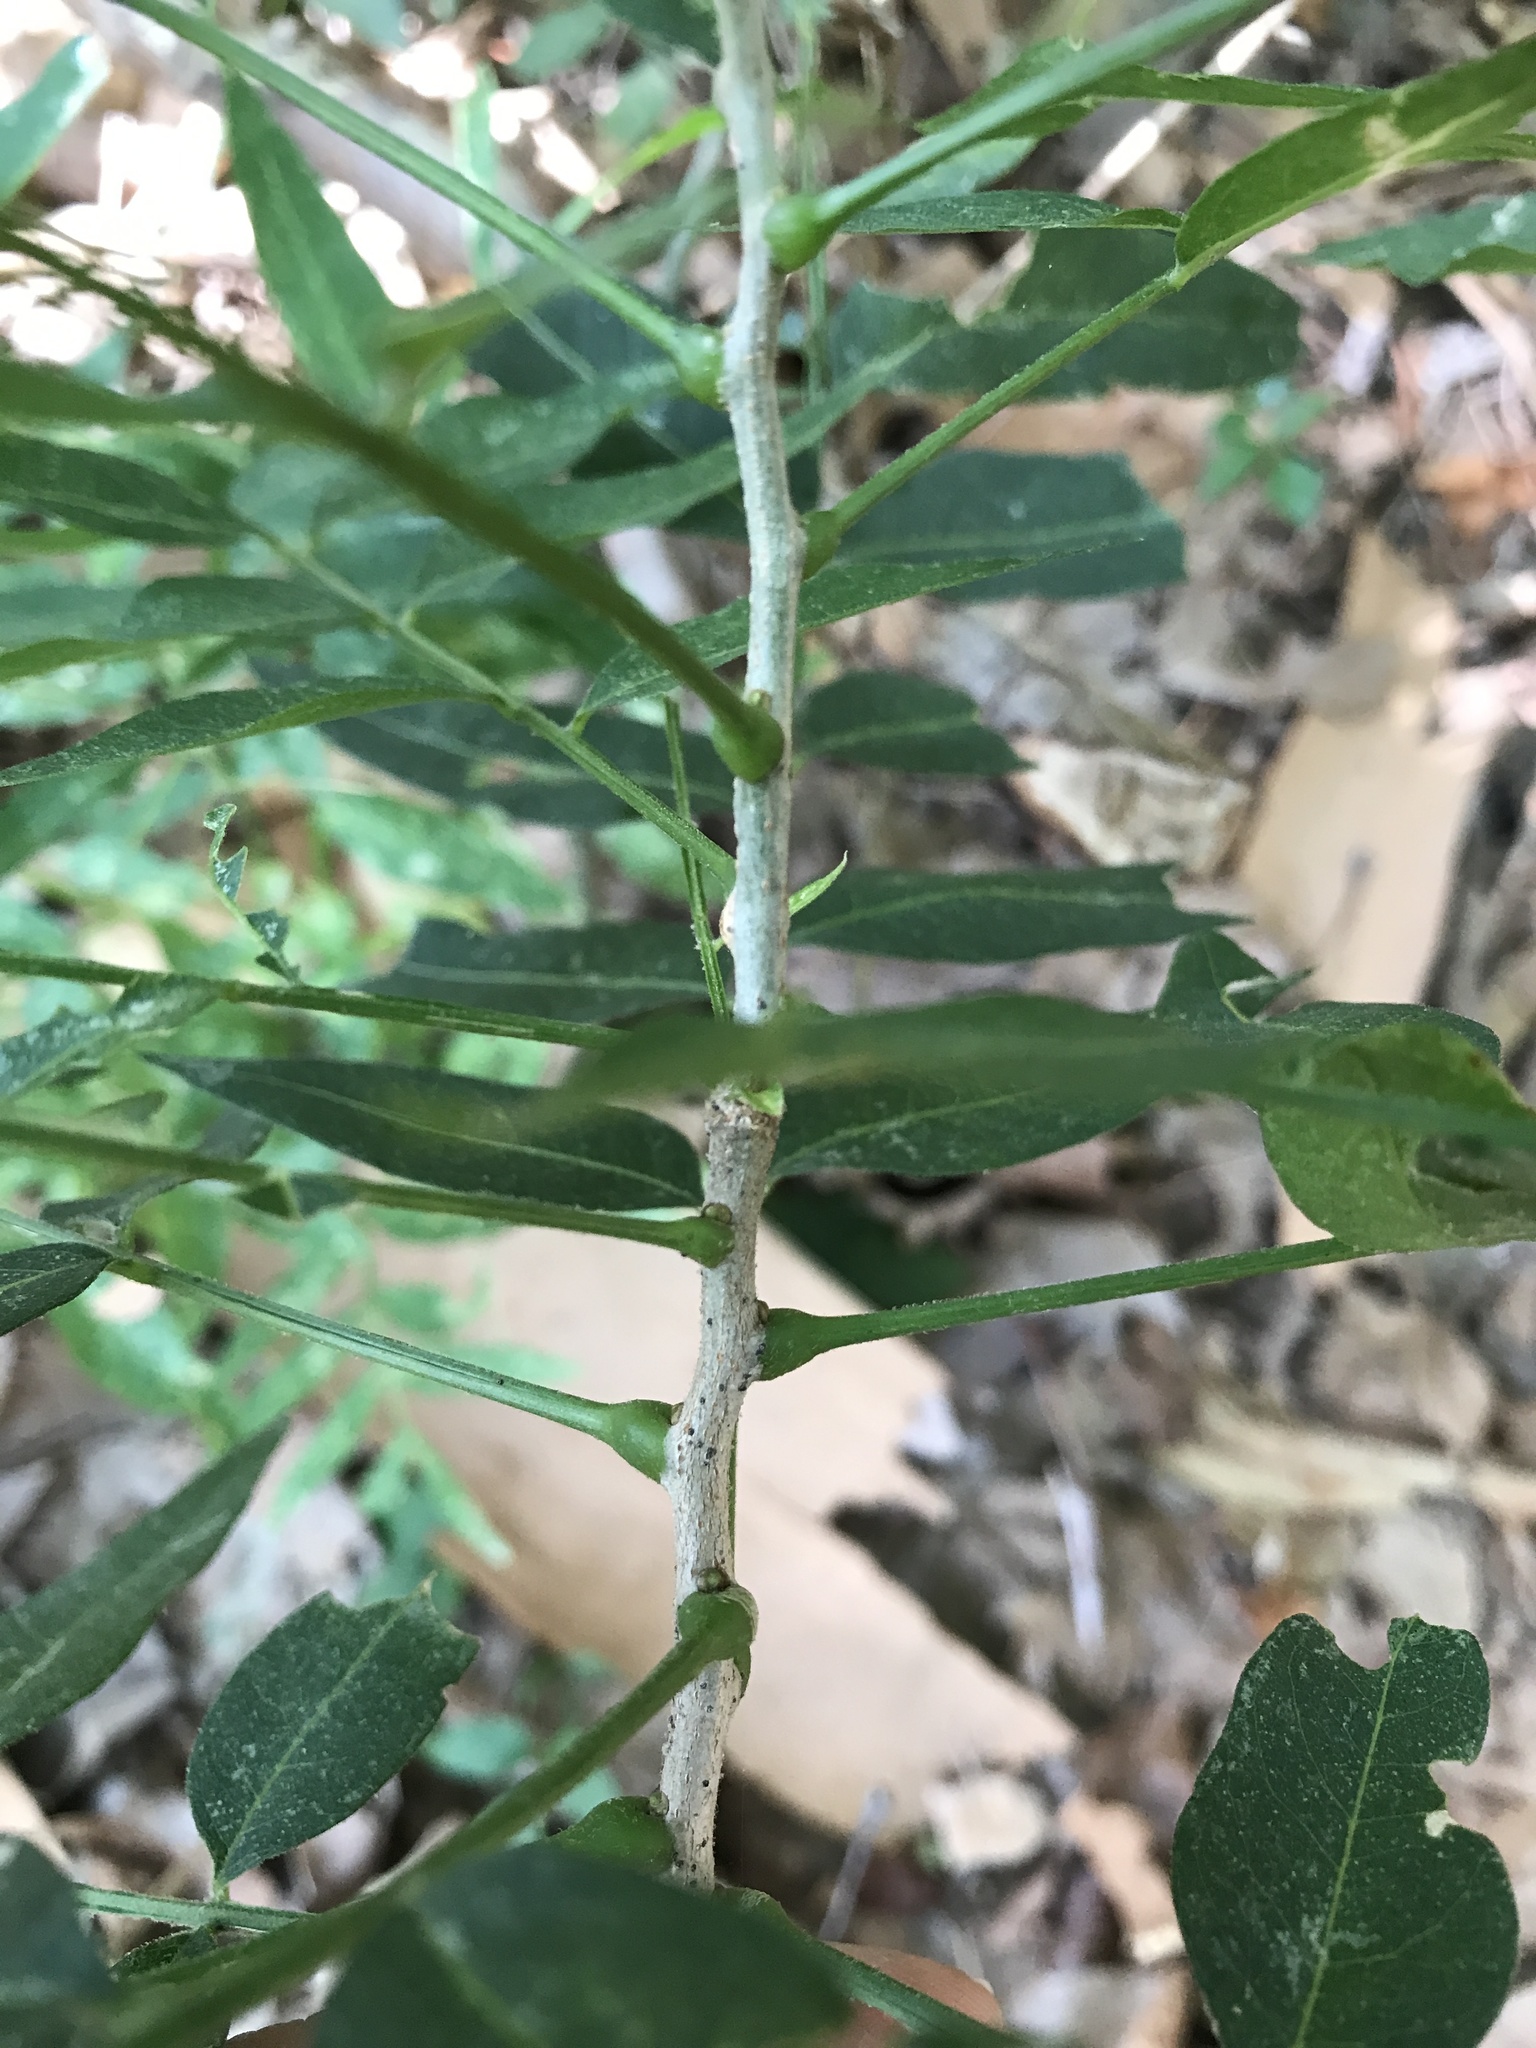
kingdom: Plantae
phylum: Tracheophyta
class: Magnoliopsida
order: Sapindales
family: Sapindaceae
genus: Sapindus
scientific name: Sapindus drummondii
